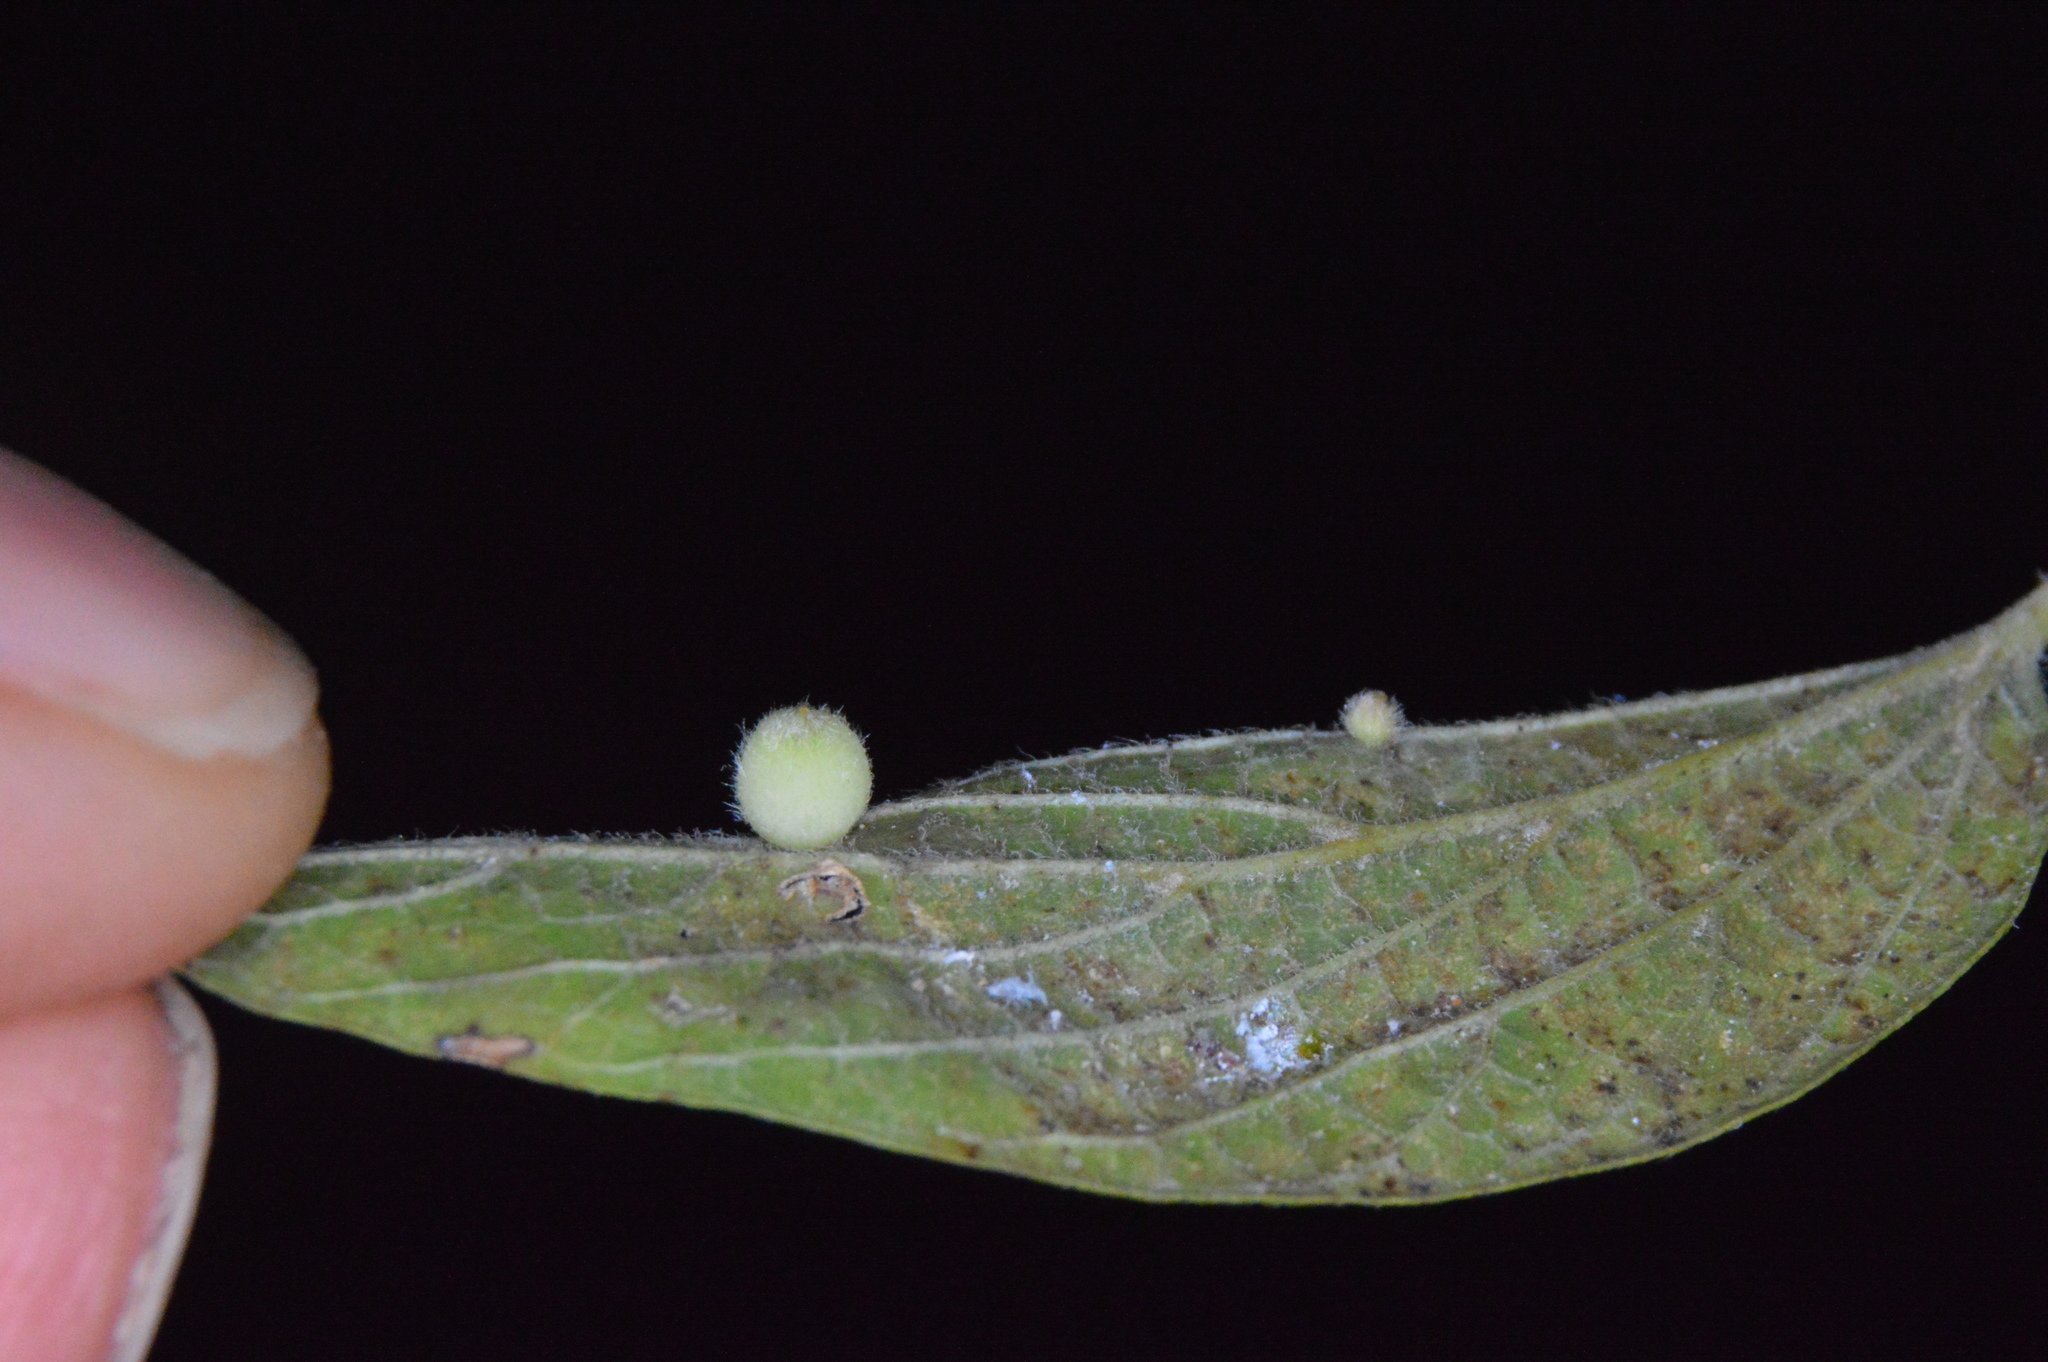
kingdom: Animalia
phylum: Arthropoda
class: Insecta
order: Diptera
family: Cecidomyiidae
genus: Celticecis
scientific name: Celticecis globosa
